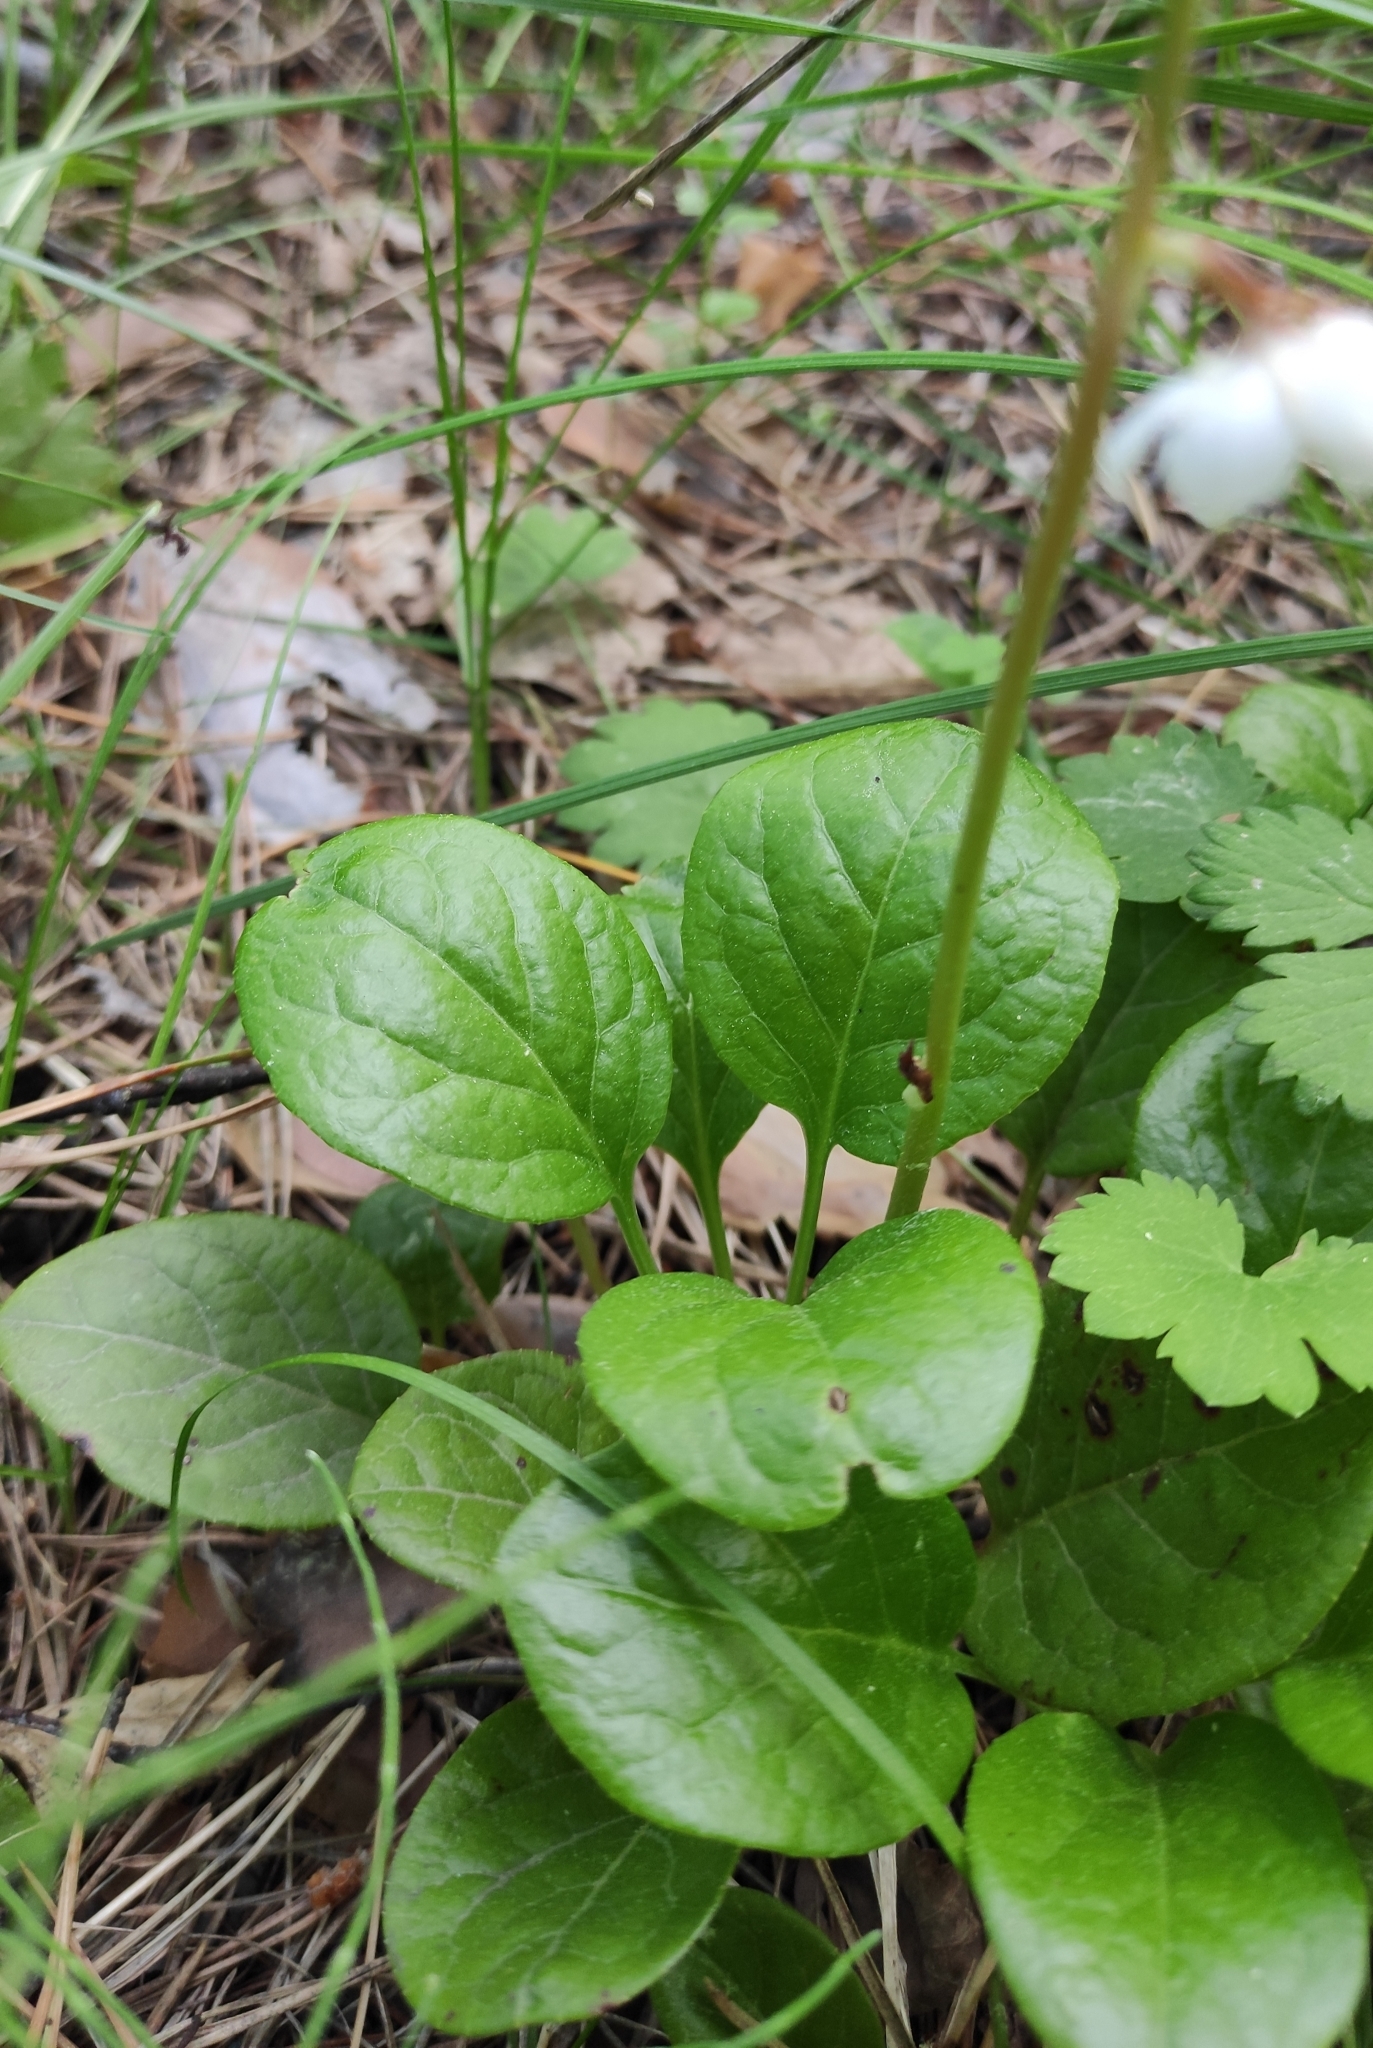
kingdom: Plantae
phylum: Tracheophyta
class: Magnoliopsida
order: Ericales
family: Ericaceae
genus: Pyrola
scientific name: Pyrola rotundifolia
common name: Round-leaved wintergreen
